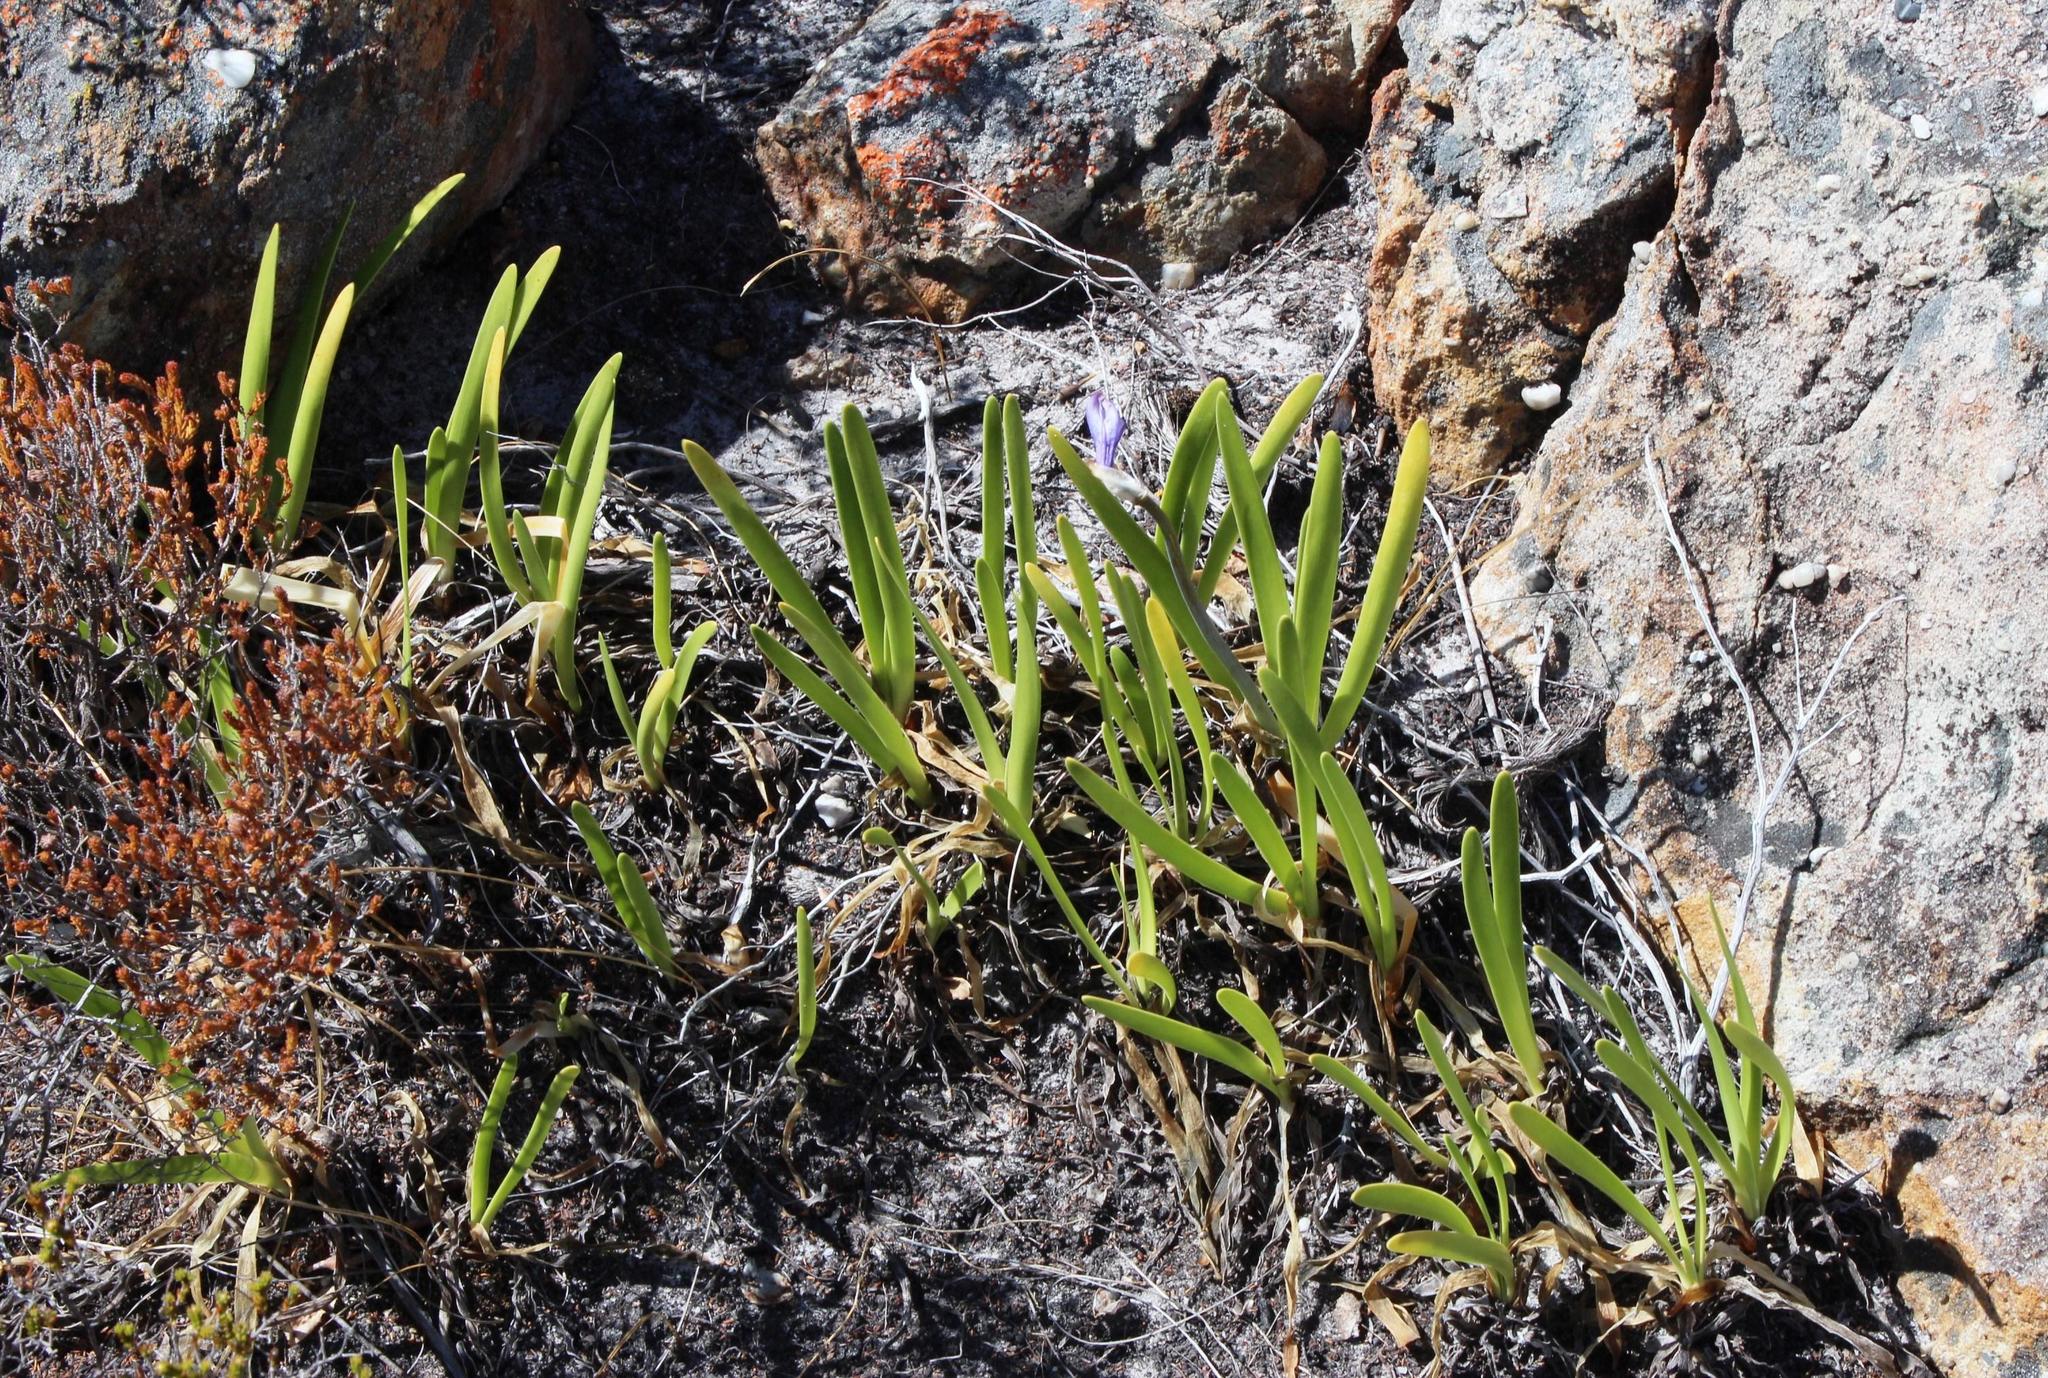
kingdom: Plantae
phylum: Tracheophyta
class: Liliopsida
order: Asparagales
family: Amaryllidaceae
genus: Agapanthus
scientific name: Agapanthus africanus
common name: Lily-of-the-nile
